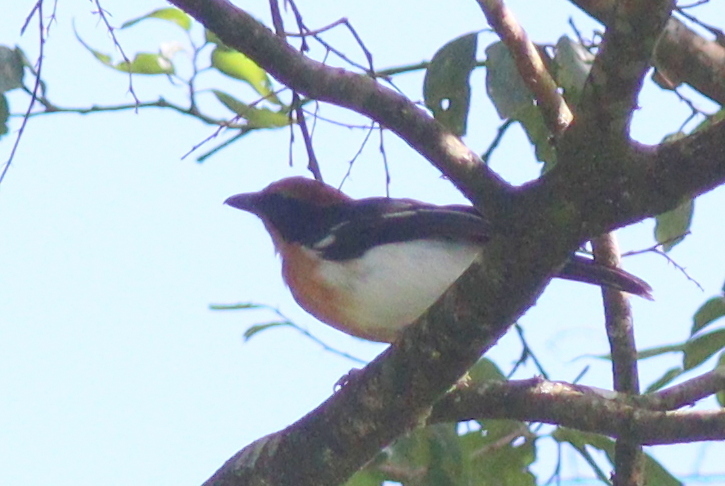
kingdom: Animalia
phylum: Chordata
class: Aves
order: Passeriformes
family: Malaconotidae
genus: Laniarius
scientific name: Laniarius luehderi
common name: Lühder's bushshrike
